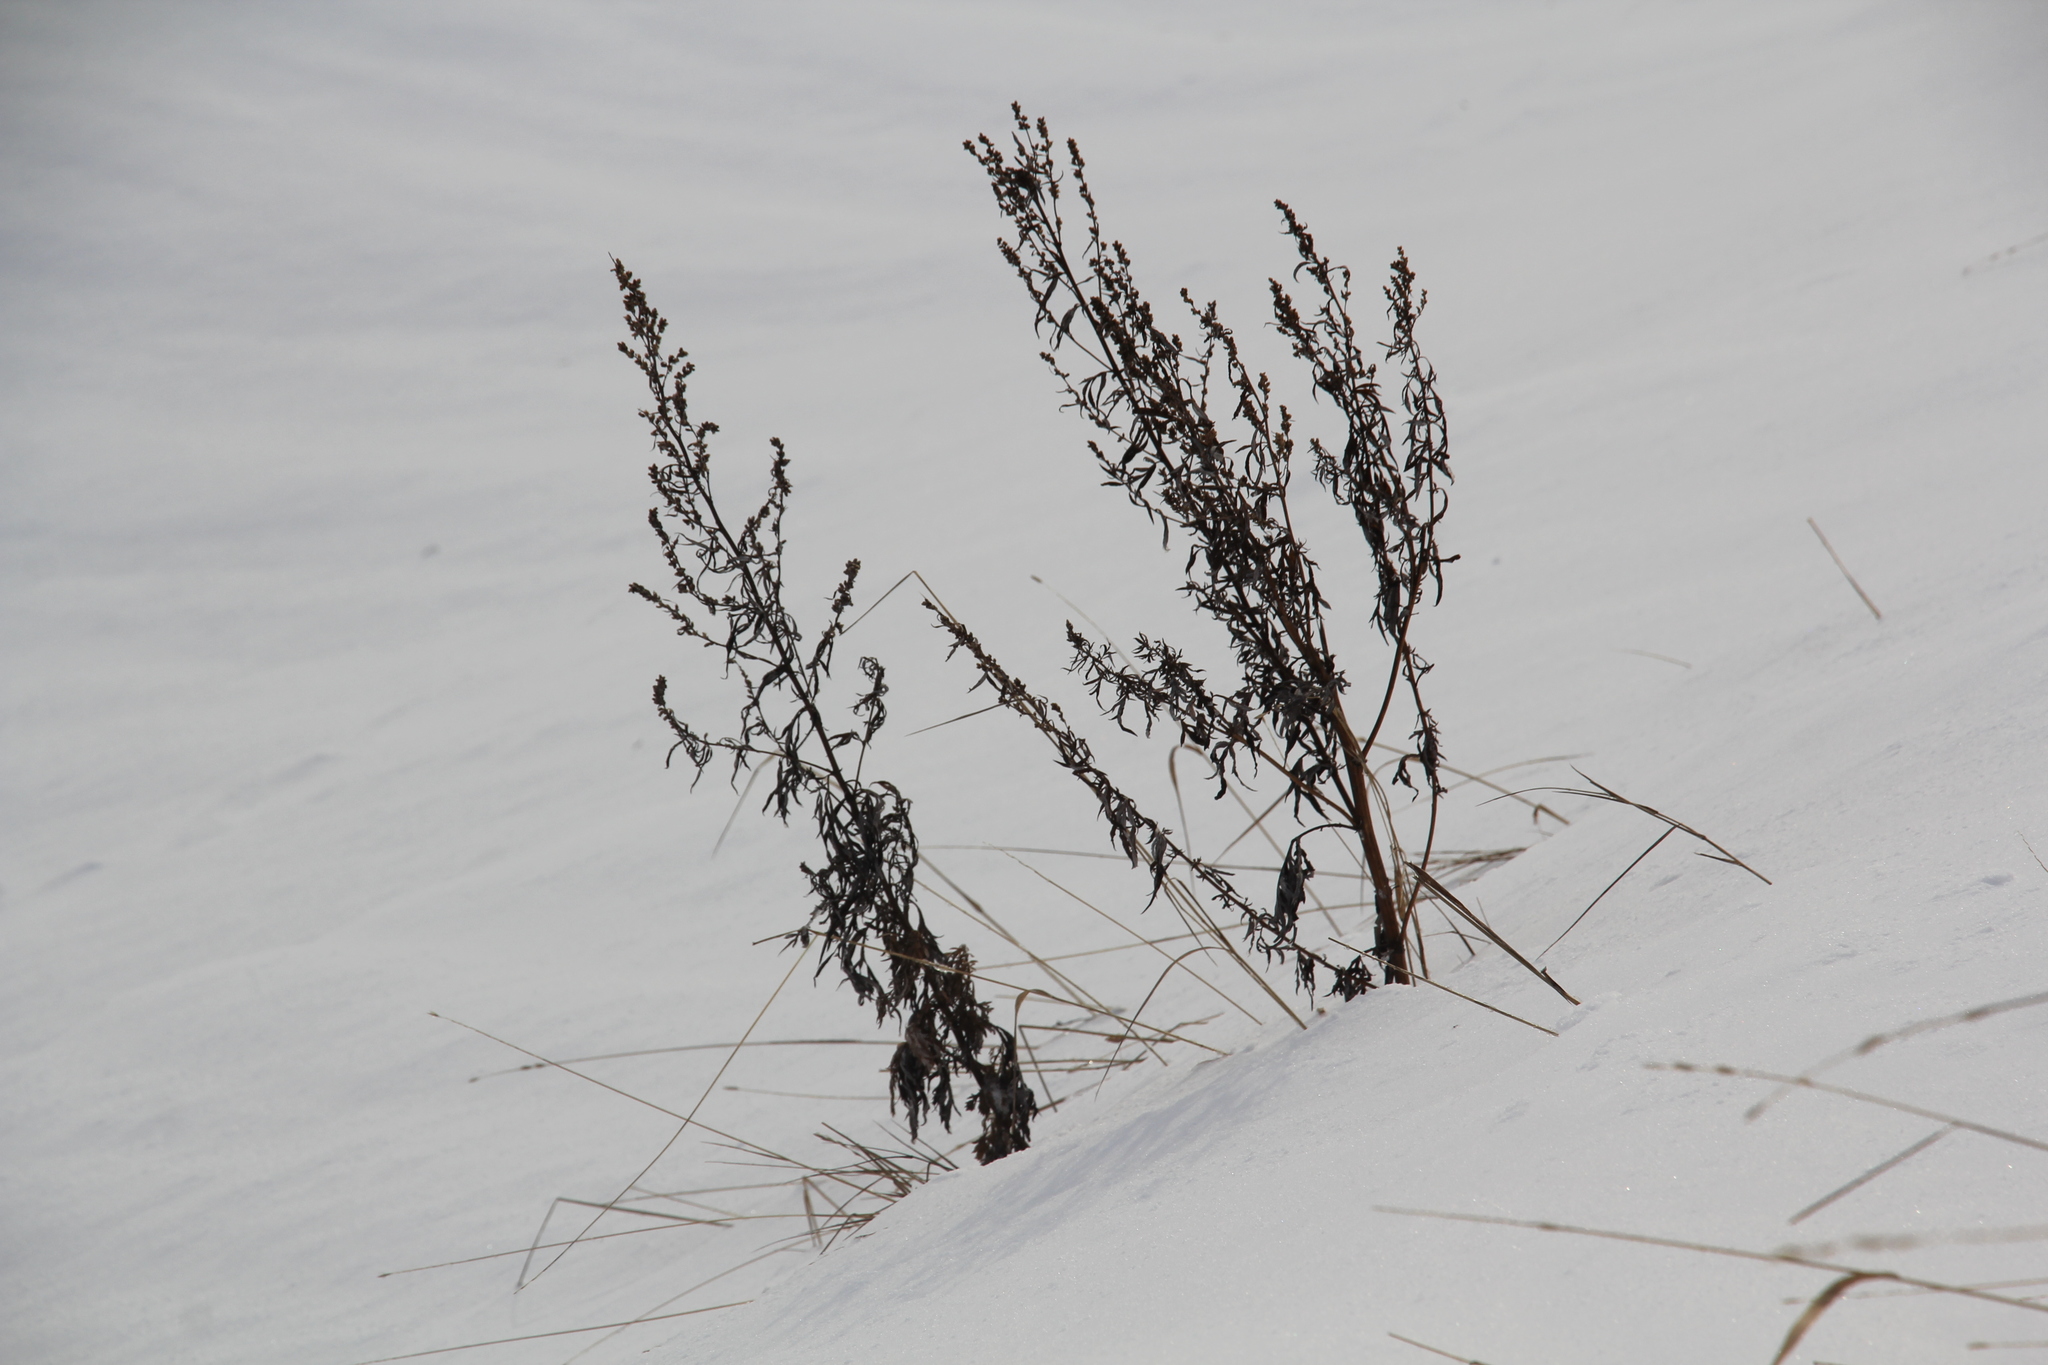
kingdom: Plantae
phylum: Tracheophyta
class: Magnoliopsida
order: Asterales
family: Asteraceae
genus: Artemisia
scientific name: Artemisia vulgaris
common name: Mugwort
